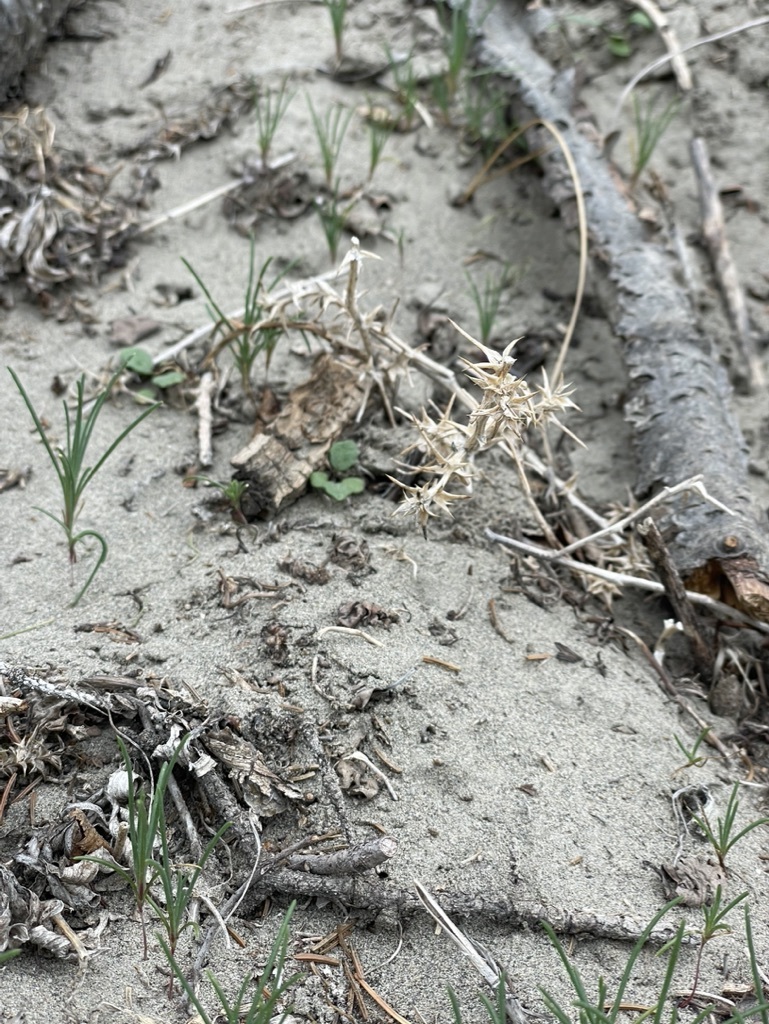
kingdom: Plantae
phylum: Tracheophyta
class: Magnoliopsida
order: Caryophyllales
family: Amaranthaceae
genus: Salsola
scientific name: Salsola tragus
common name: Prickly russian thistle
